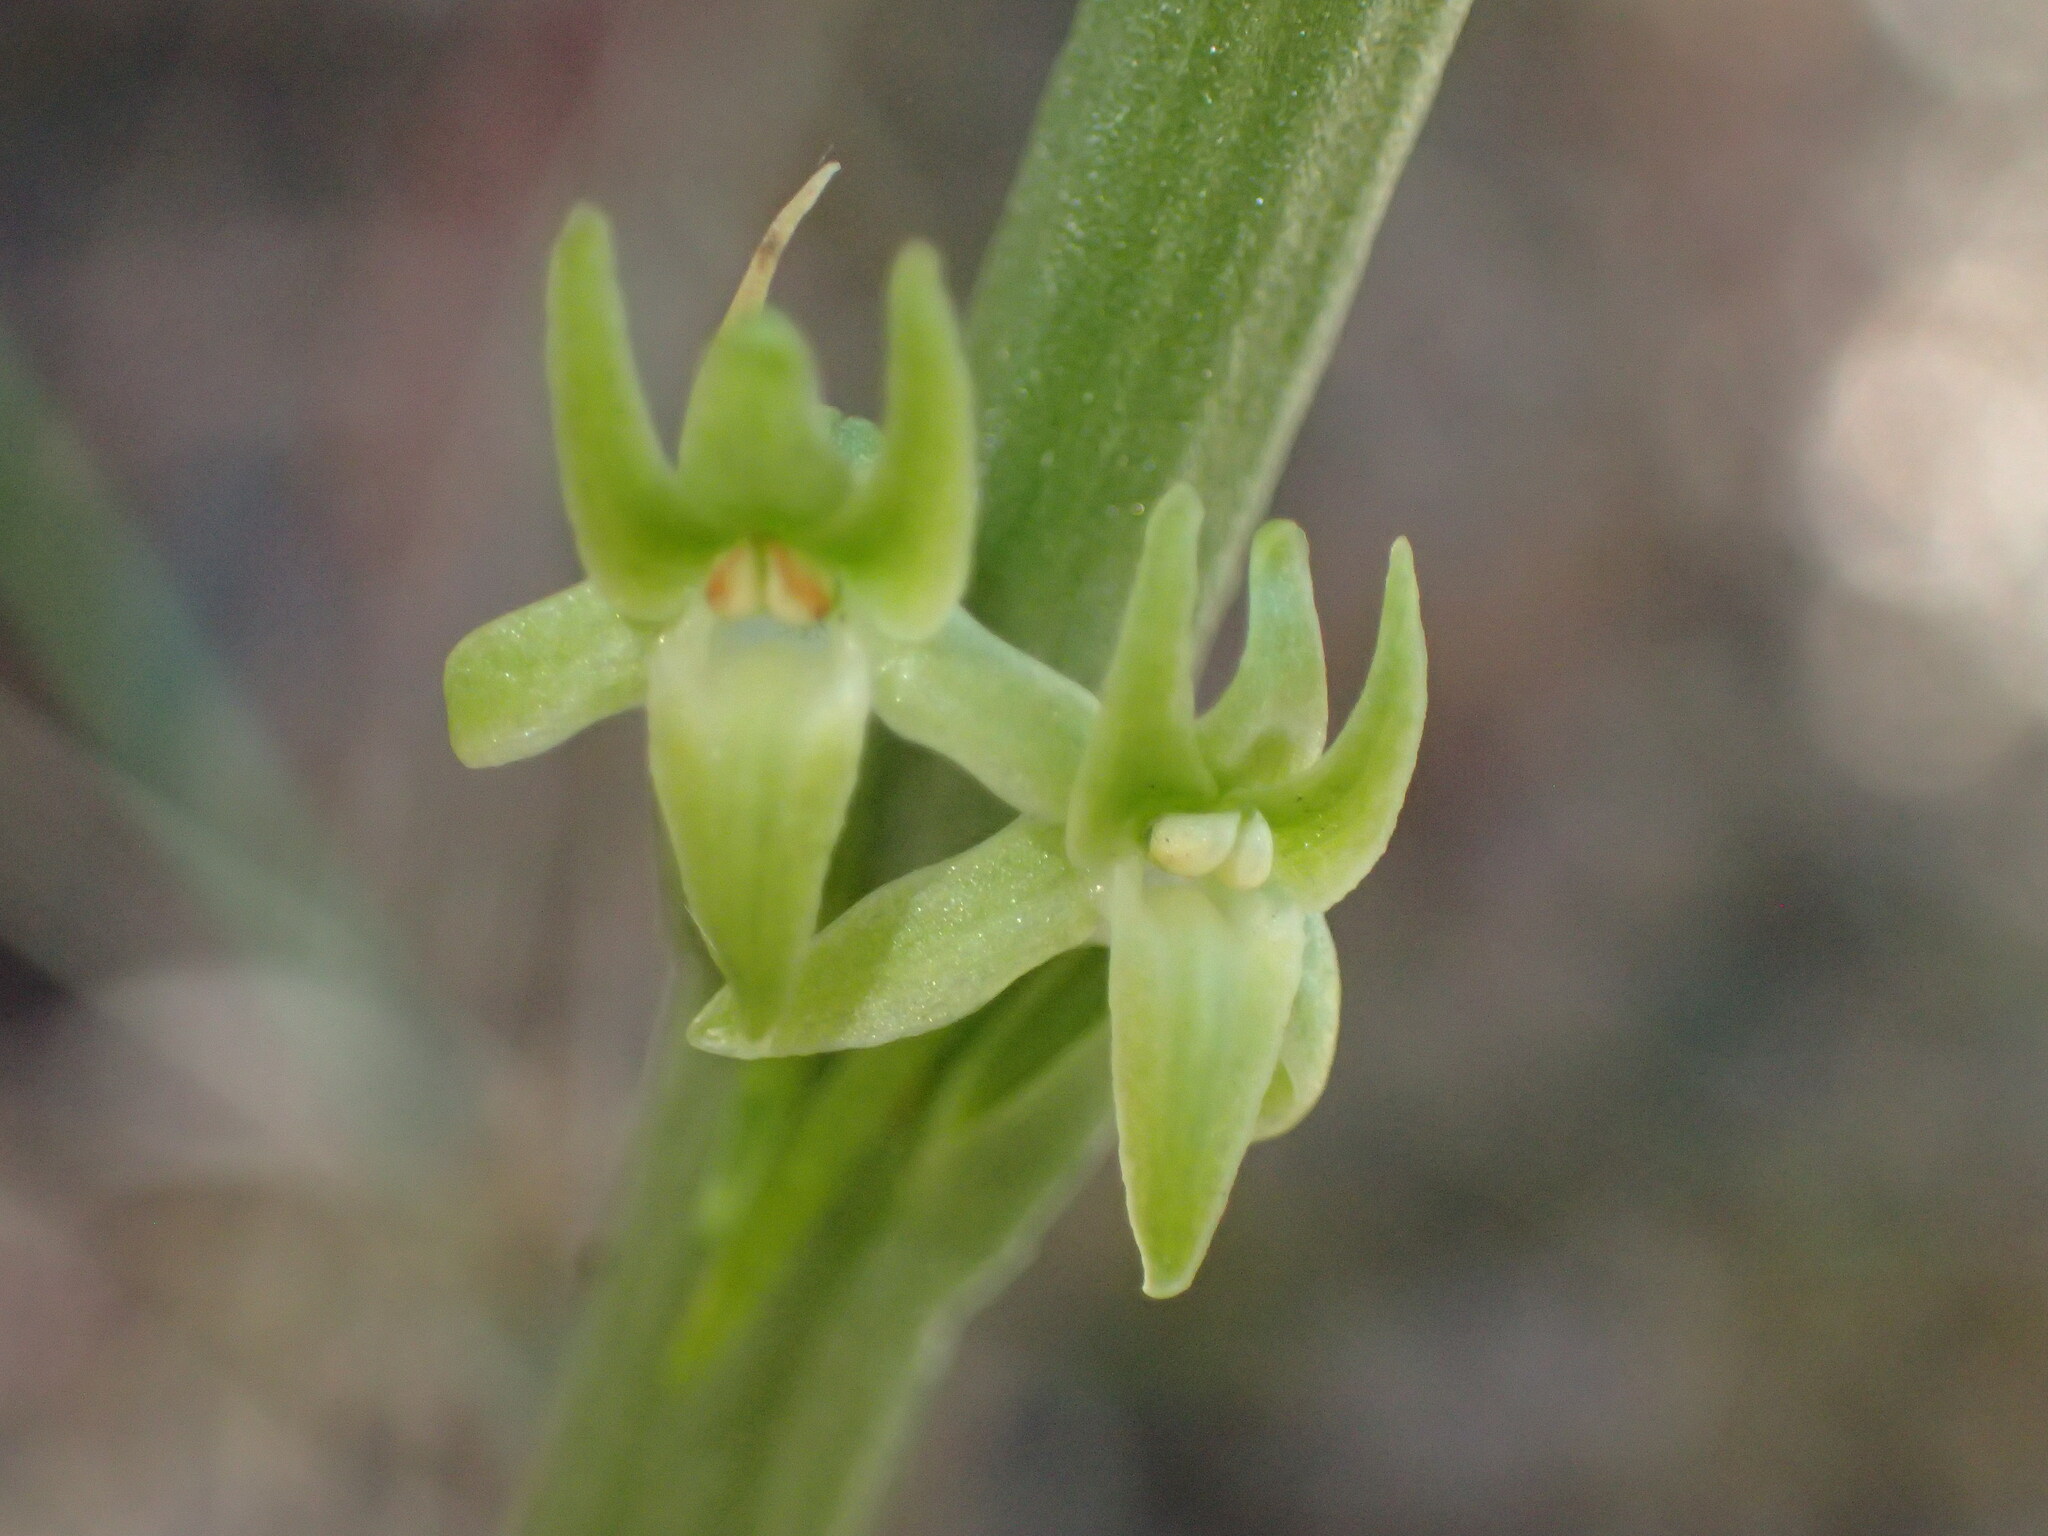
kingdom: Plantae
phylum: Tracheophyta
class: Liliopsida
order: Asparagales
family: Orchidaceae
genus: Platanthera
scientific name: Platanthera elongata
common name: Dense-flowered rein orchid
